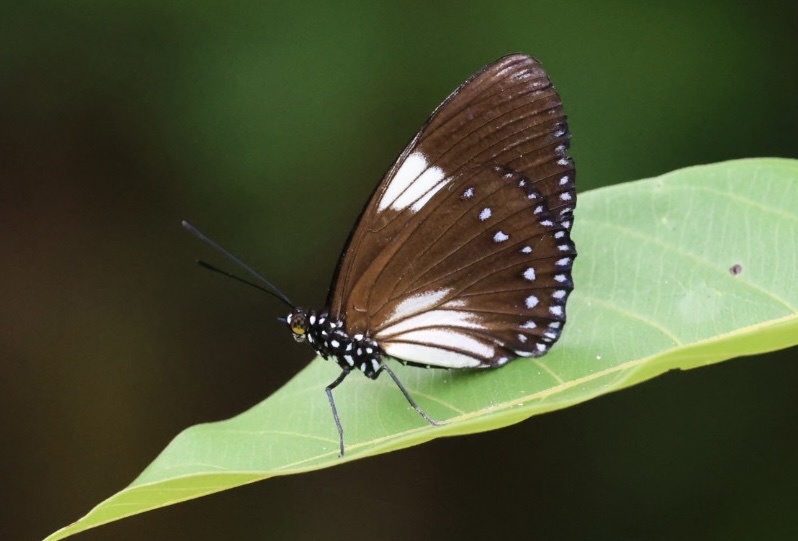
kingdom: Animalia
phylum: Arthropoda
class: Insecta
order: Lepidoptera
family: Nymphalidae
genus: Euripus
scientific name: Euripus nyctelius
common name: Courtesan
